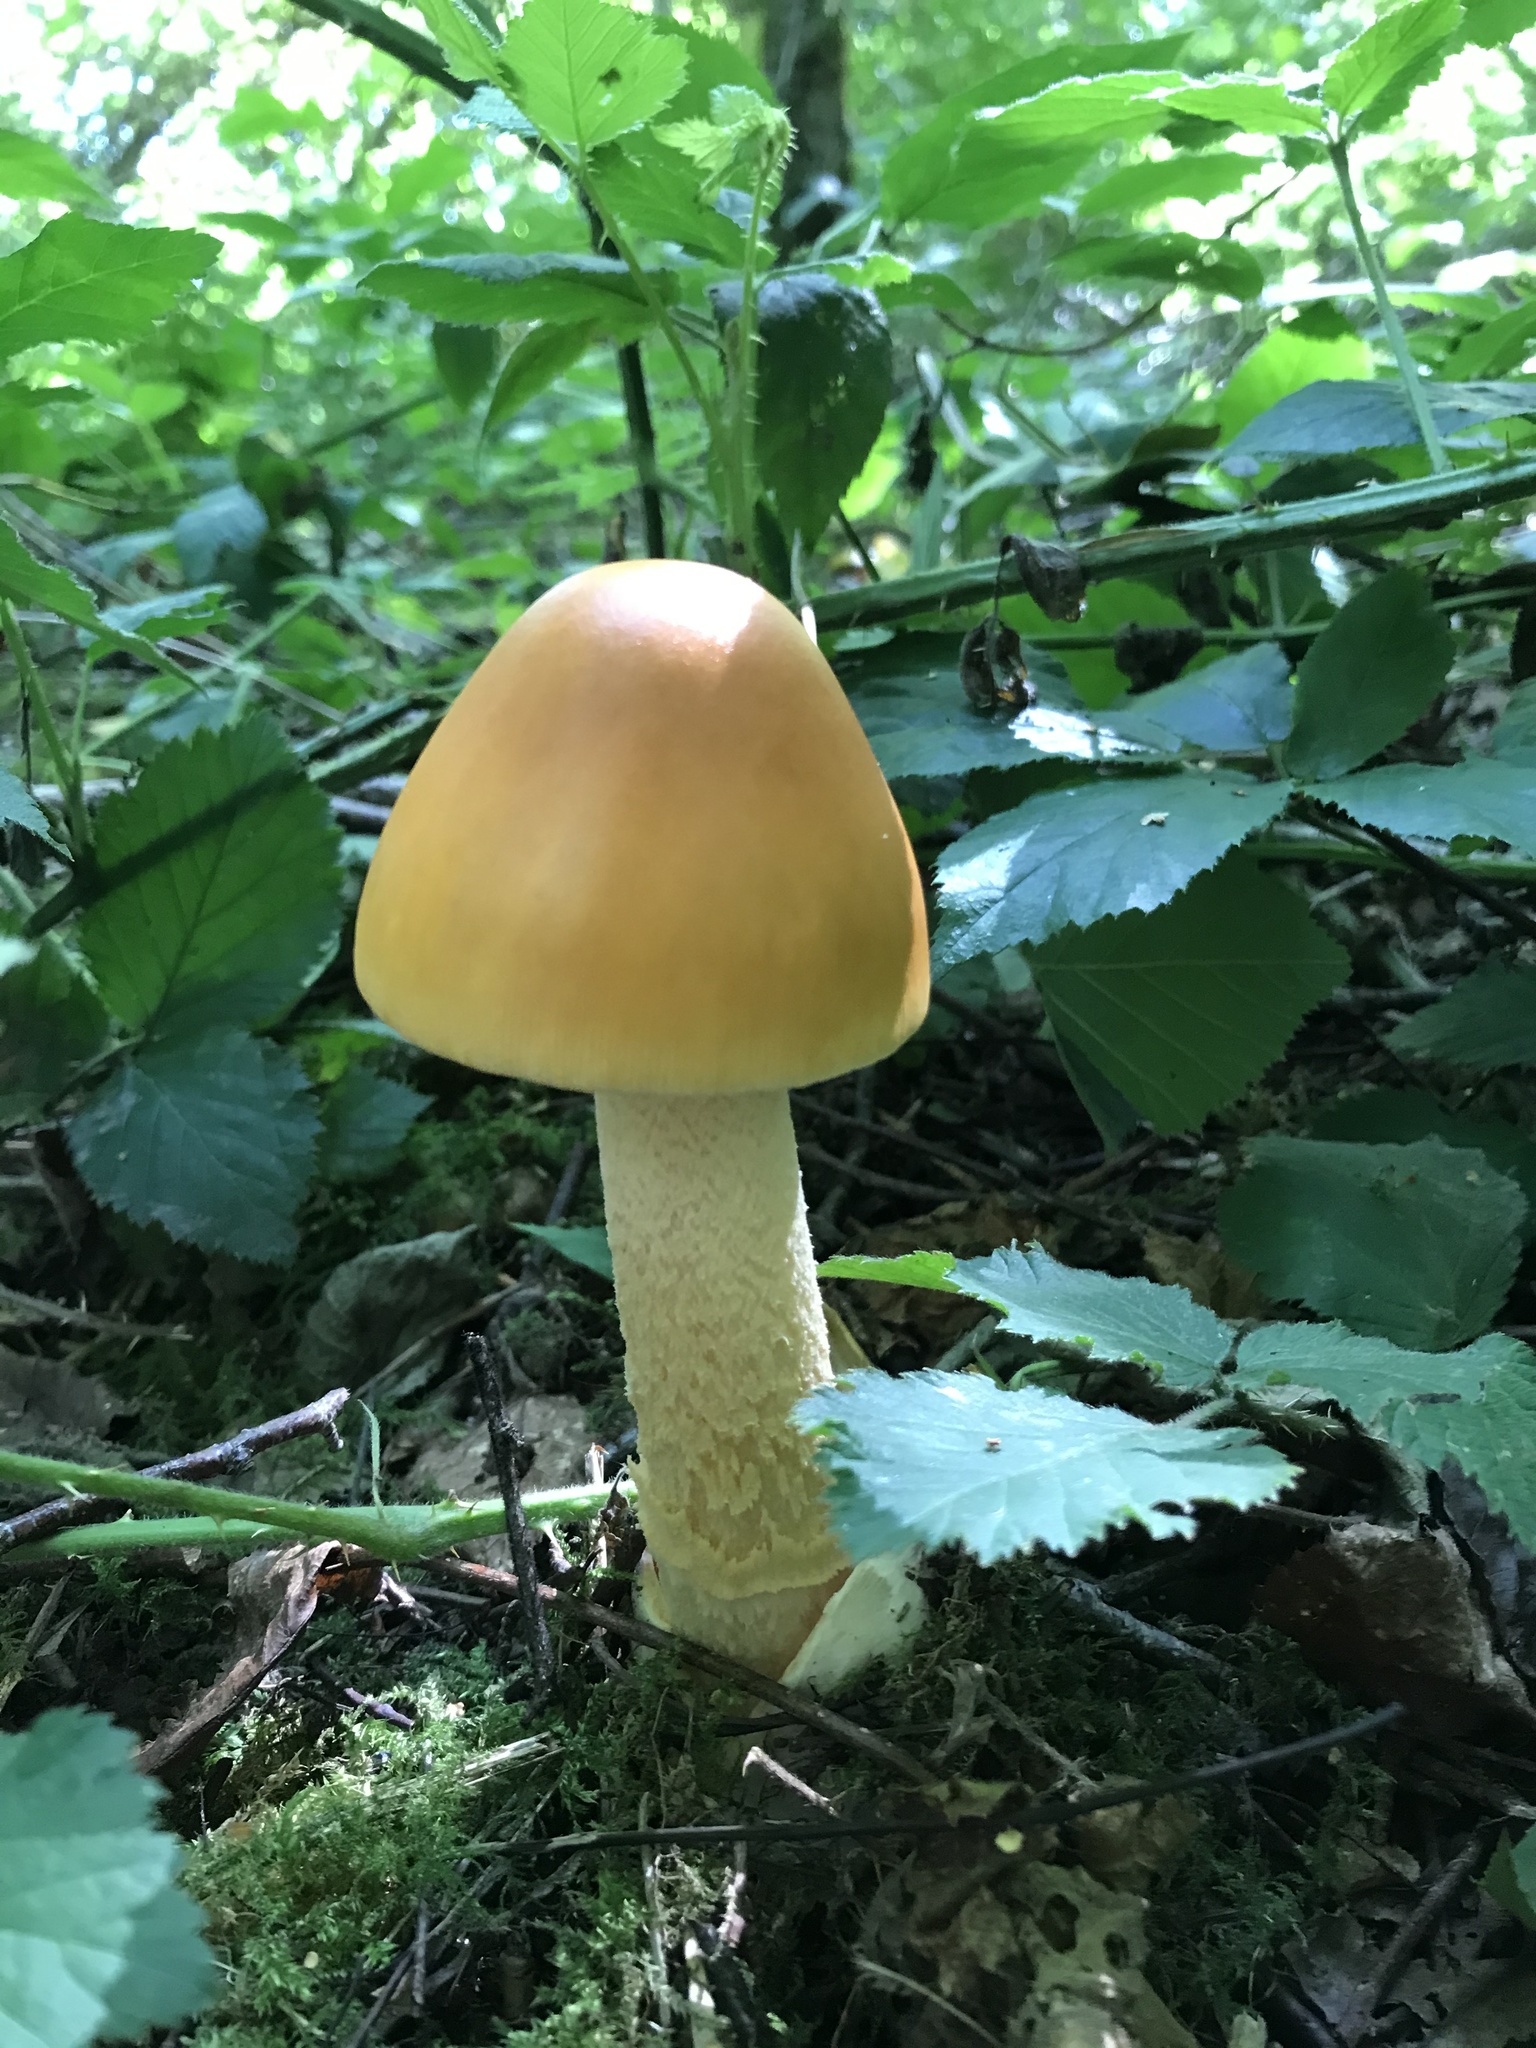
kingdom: Fungi
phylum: Basidiomycota
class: Agaricomycetes
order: Agaricales
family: Amanitaceae
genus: Amanita
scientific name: Amanita crocea
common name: Orange grisette
